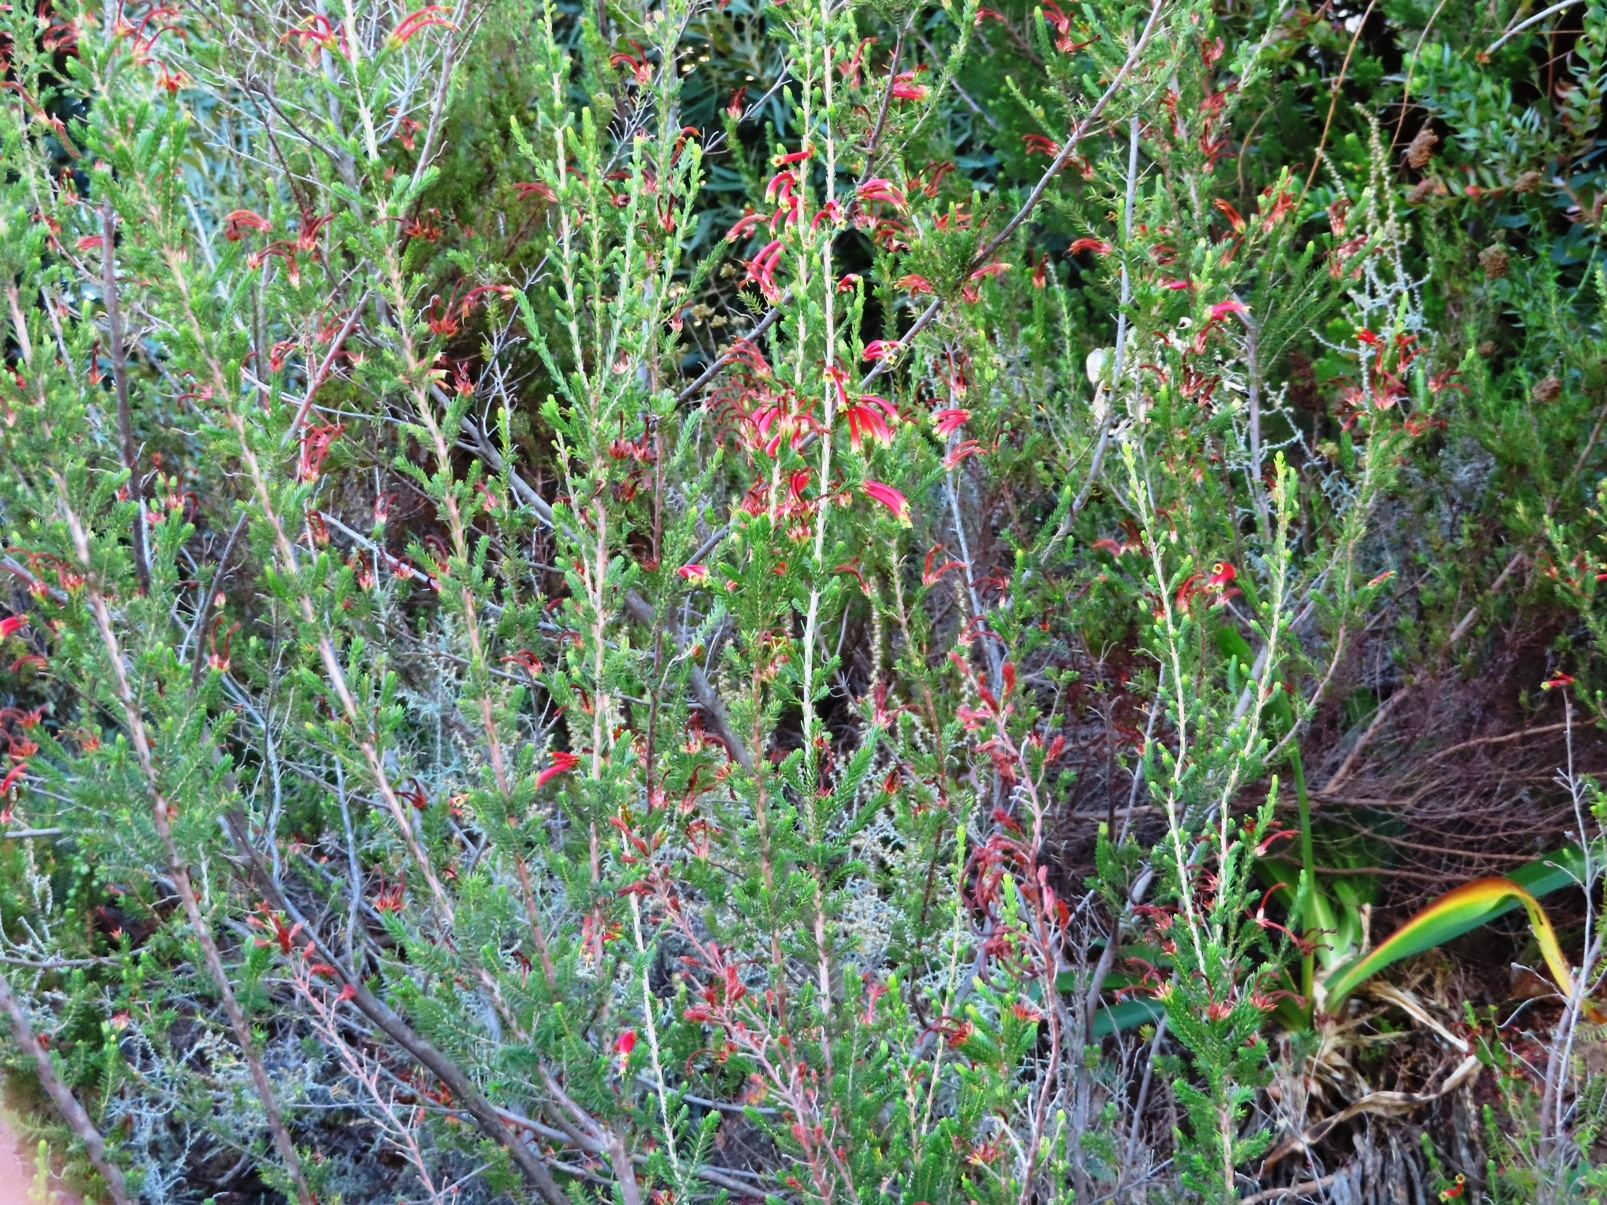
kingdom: Plantae
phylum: Tracheophyta
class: Magnoliopsida
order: Ericales
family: Ericaceae
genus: Erica
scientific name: Erica versicolor
